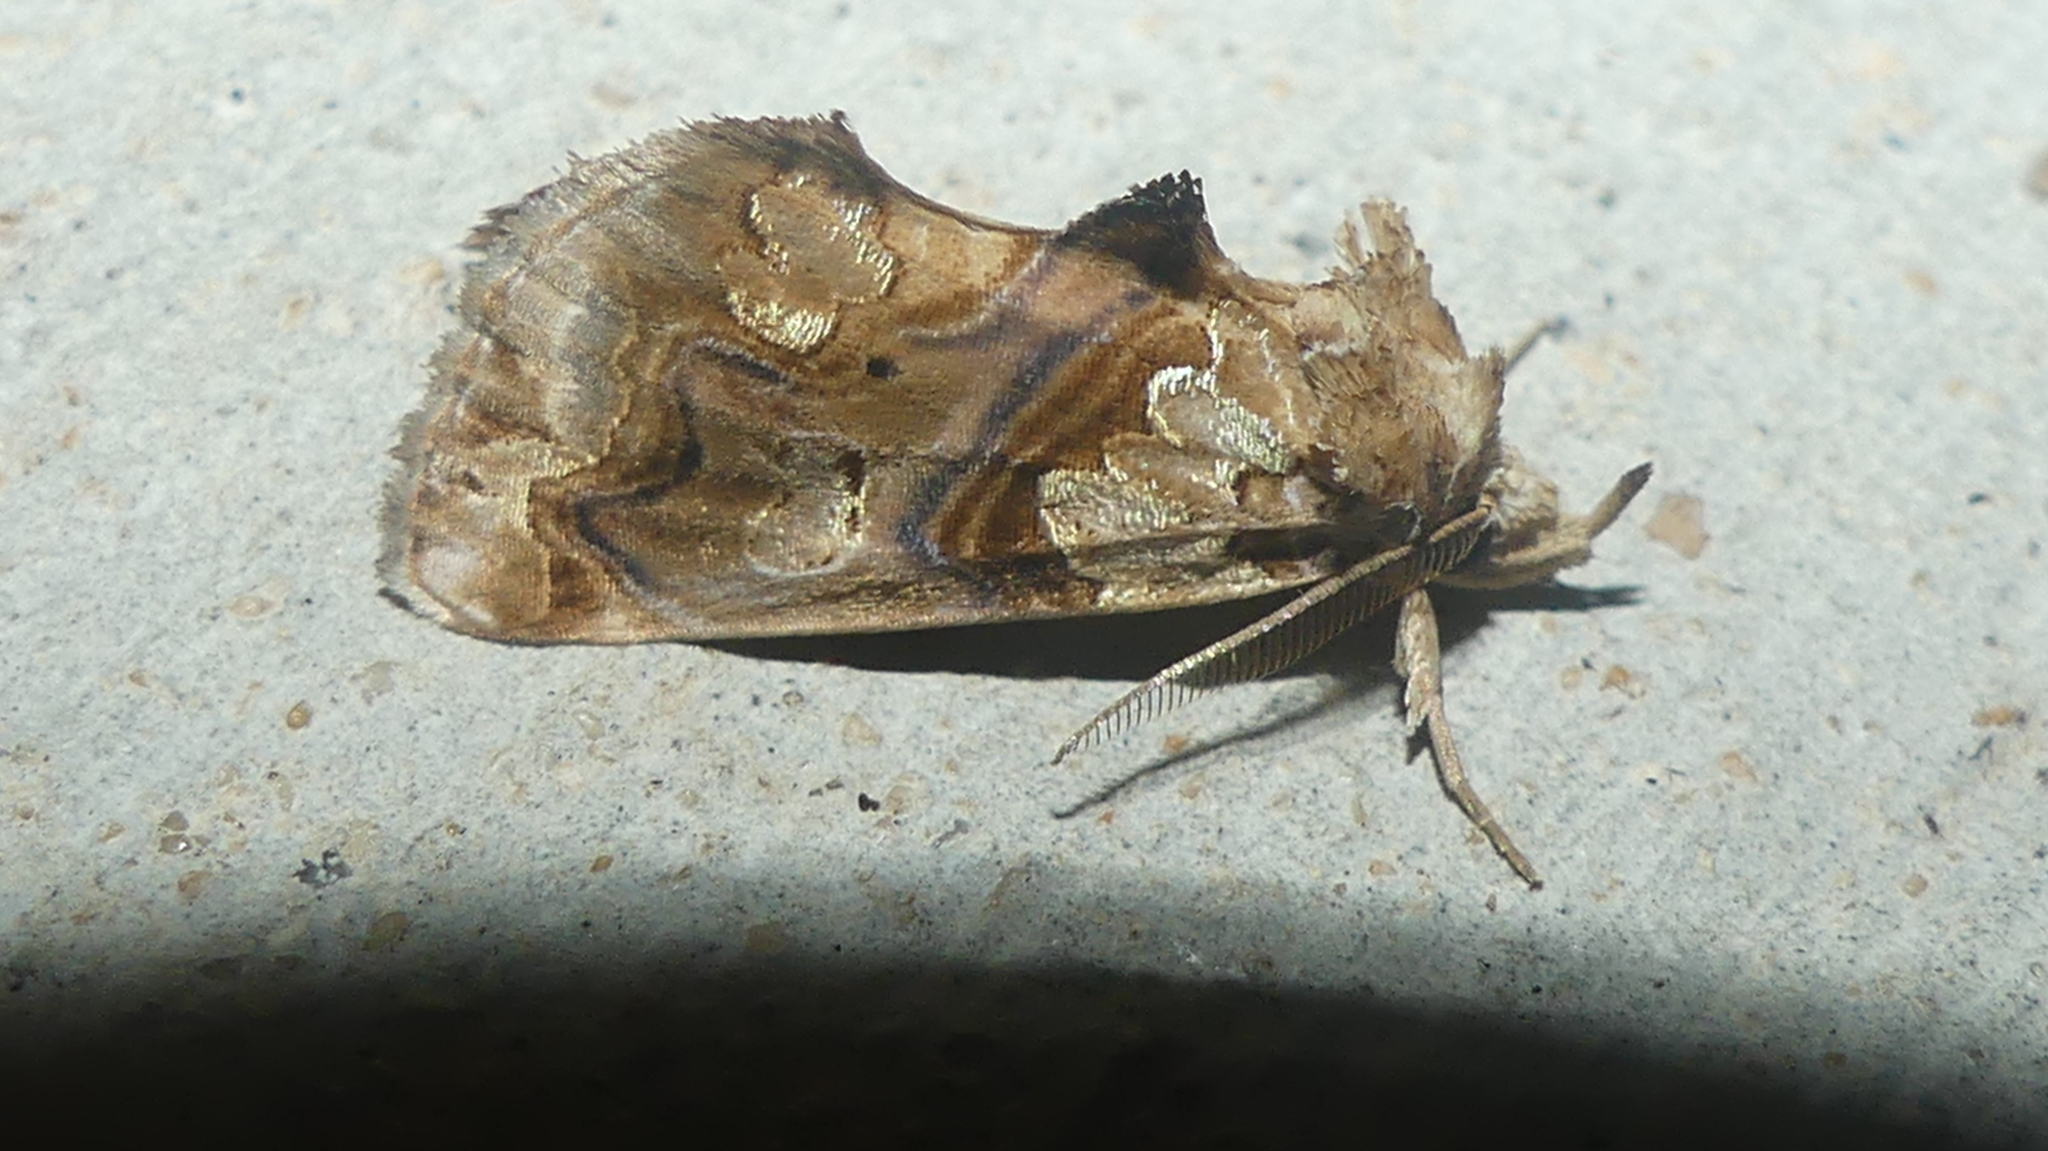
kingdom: Animalia
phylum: Arthropoda
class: Insecta
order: Lepidoptera
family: Erebidae
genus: Plusiodonta
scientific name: Plusiodonta compressipalpis
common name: Moonseed moth
